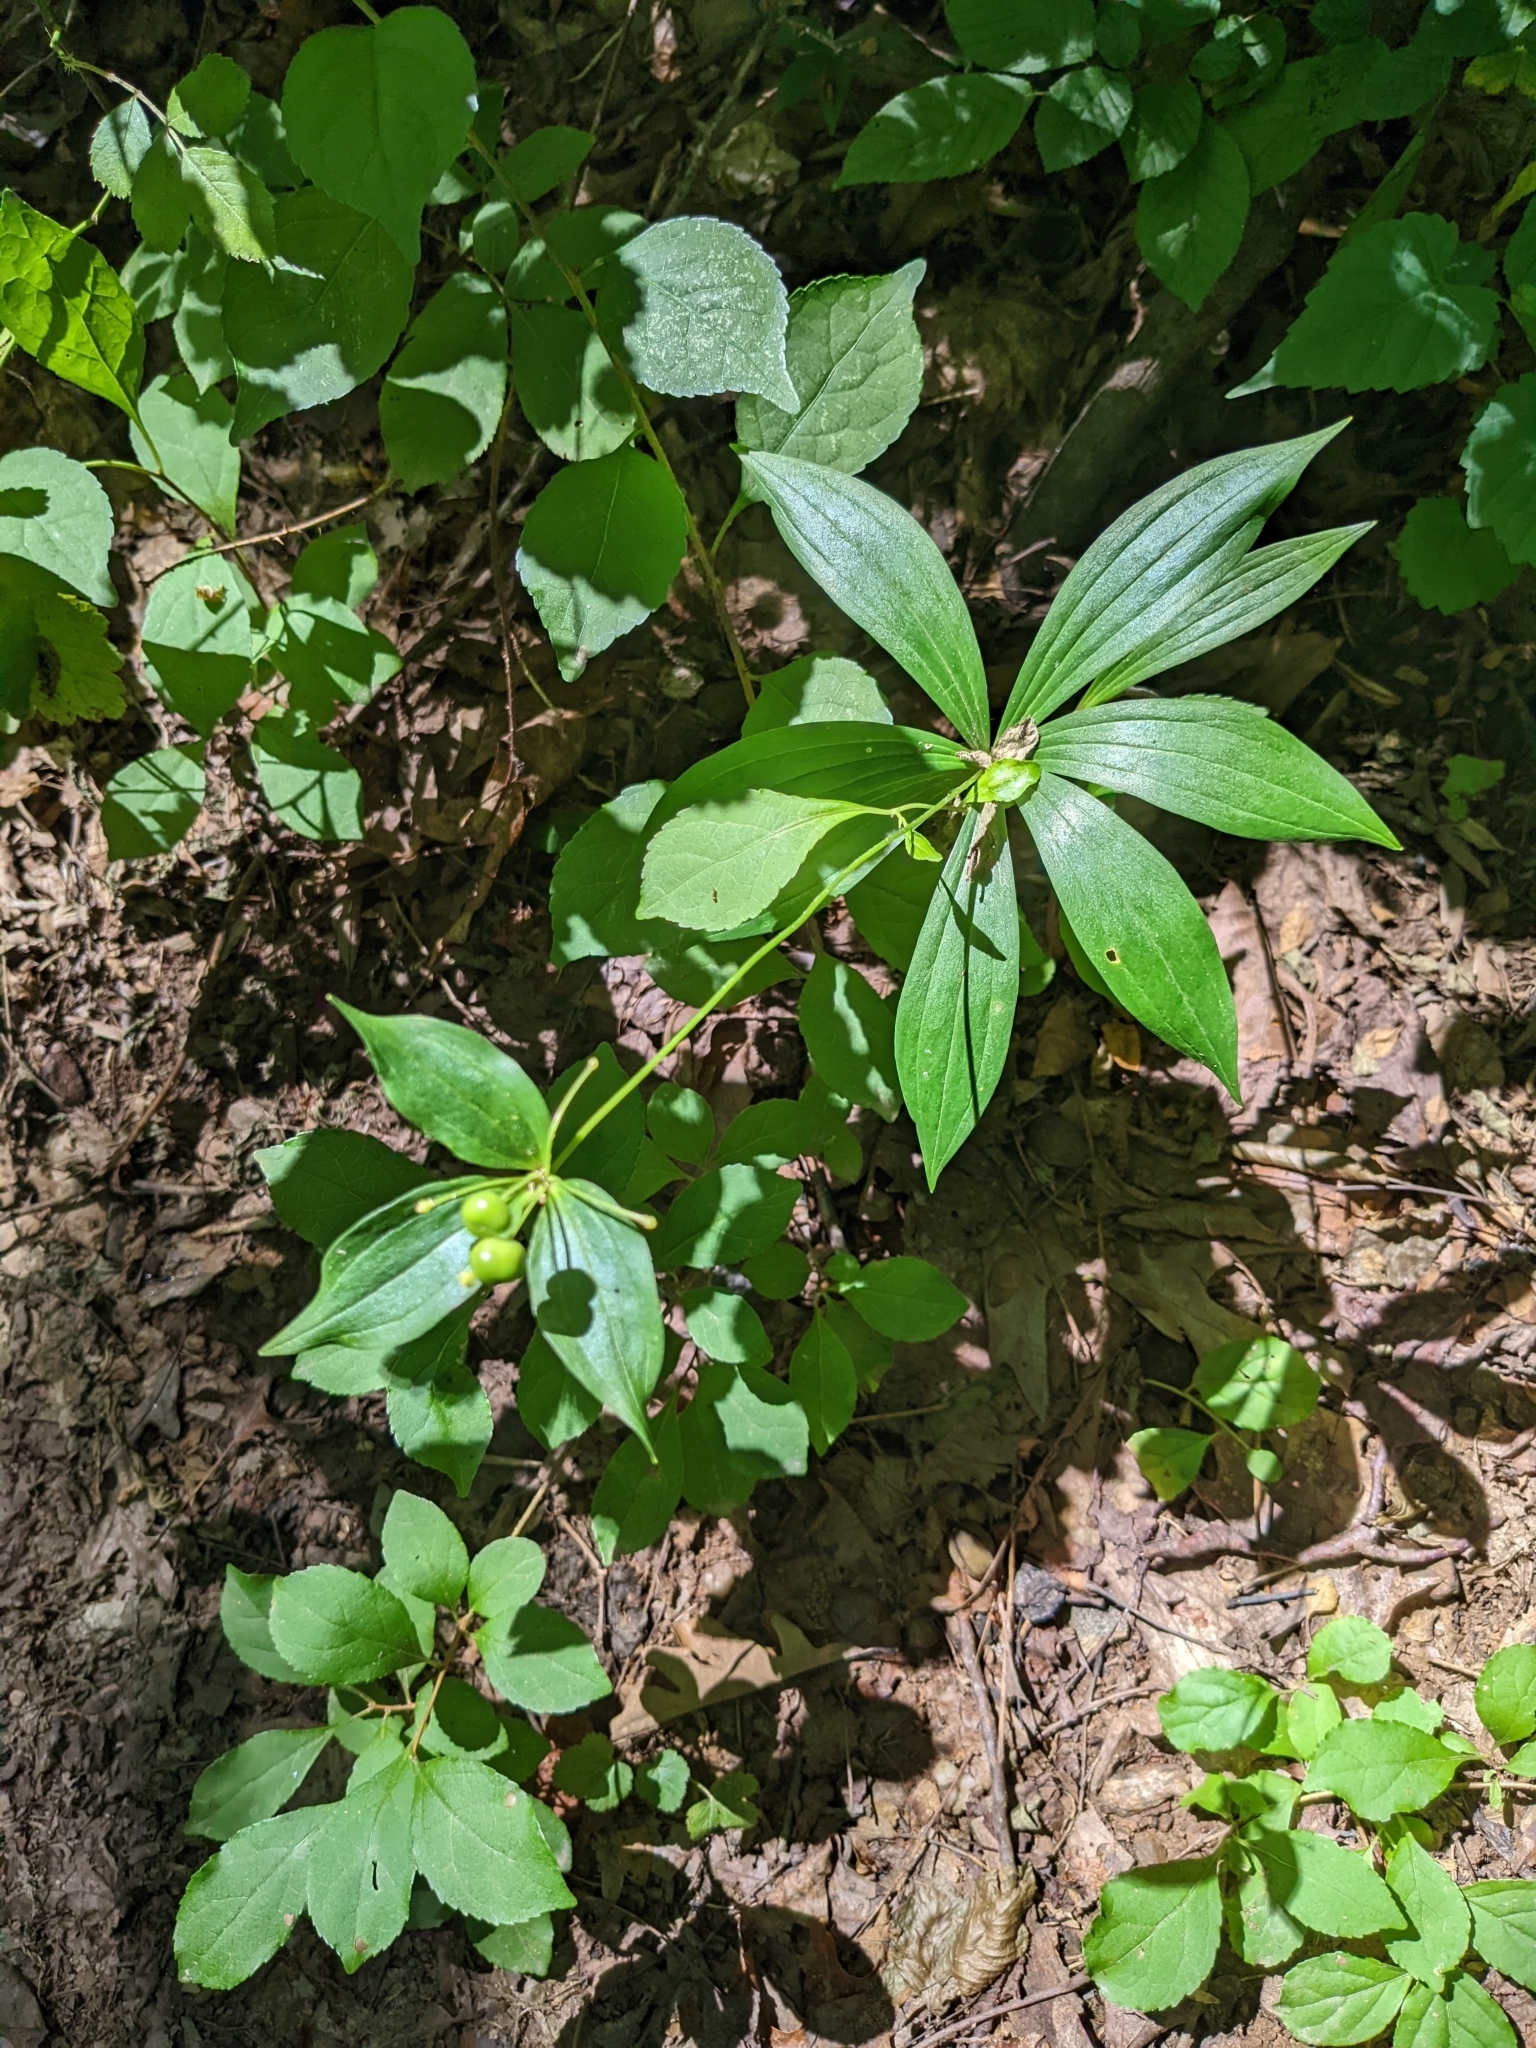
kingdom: Plantae
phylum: Tracheophyta
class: Liliopsida
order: Liliales
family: Liliaceae
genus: Medeola
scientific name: Medeola virginiana
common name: Indian cucumber-root
